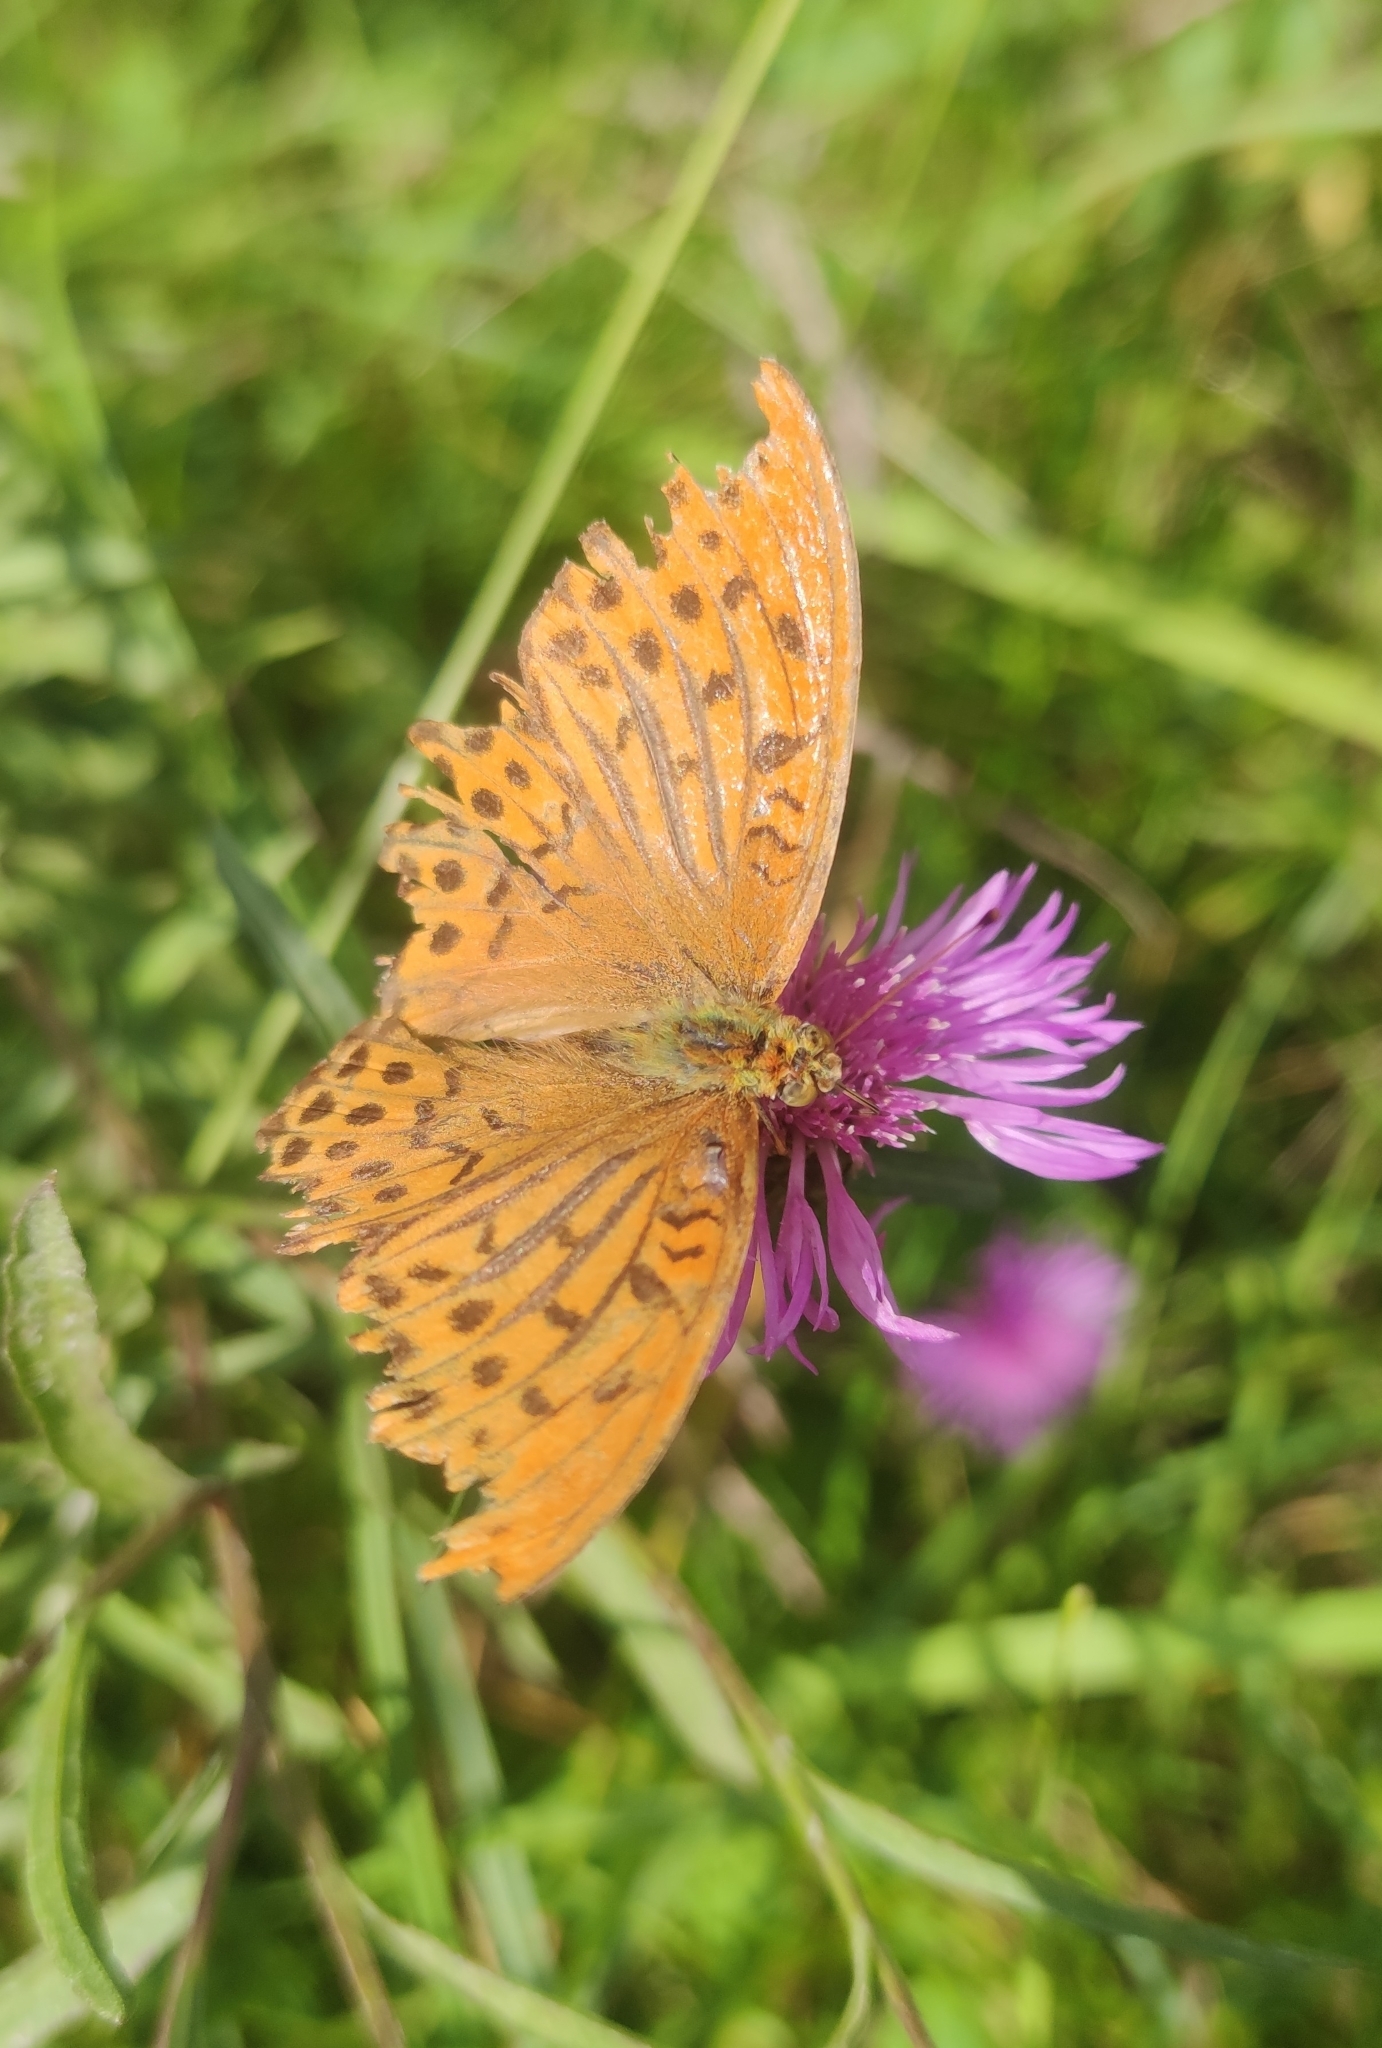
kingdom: Animalia
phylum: Arthropoda
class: Insecta
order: Lepidoptera
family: Nymphalidae
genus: Argynnis
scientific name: Argynnis paphia
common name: Silver-washed fritillary
